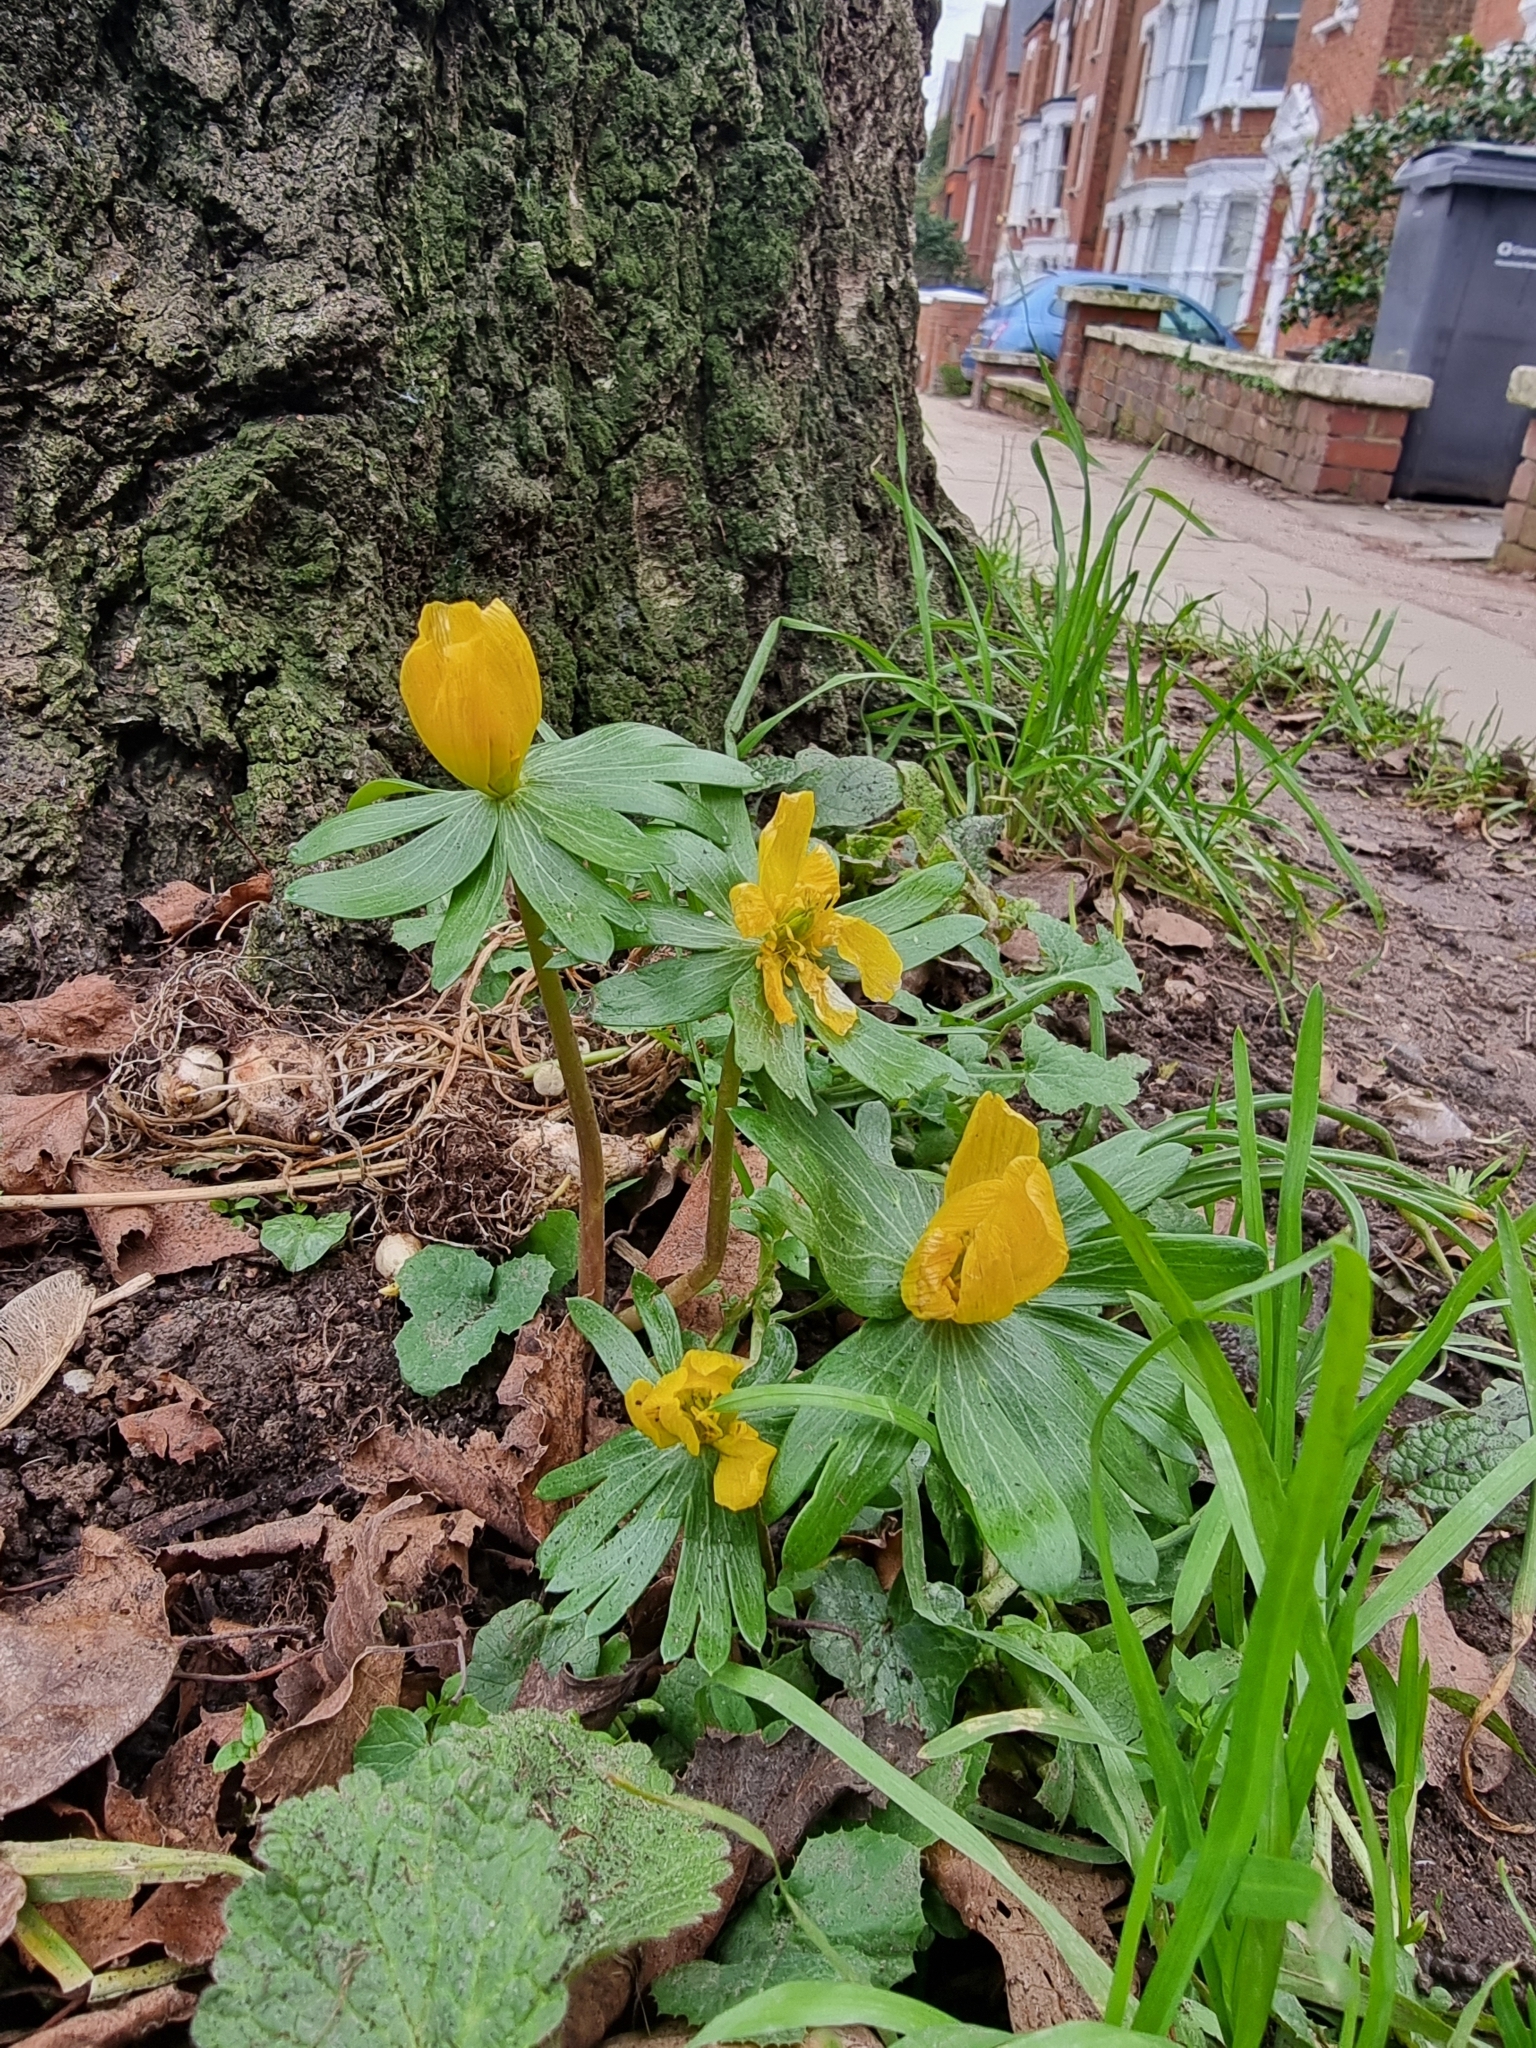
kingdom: Plantae
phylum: Tracheophyta
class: Magnoliopsida
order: Ranunculales
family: Ranunculaceae
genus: Eranthis
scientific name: Eranthis hyemalis
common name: Winter aconite
